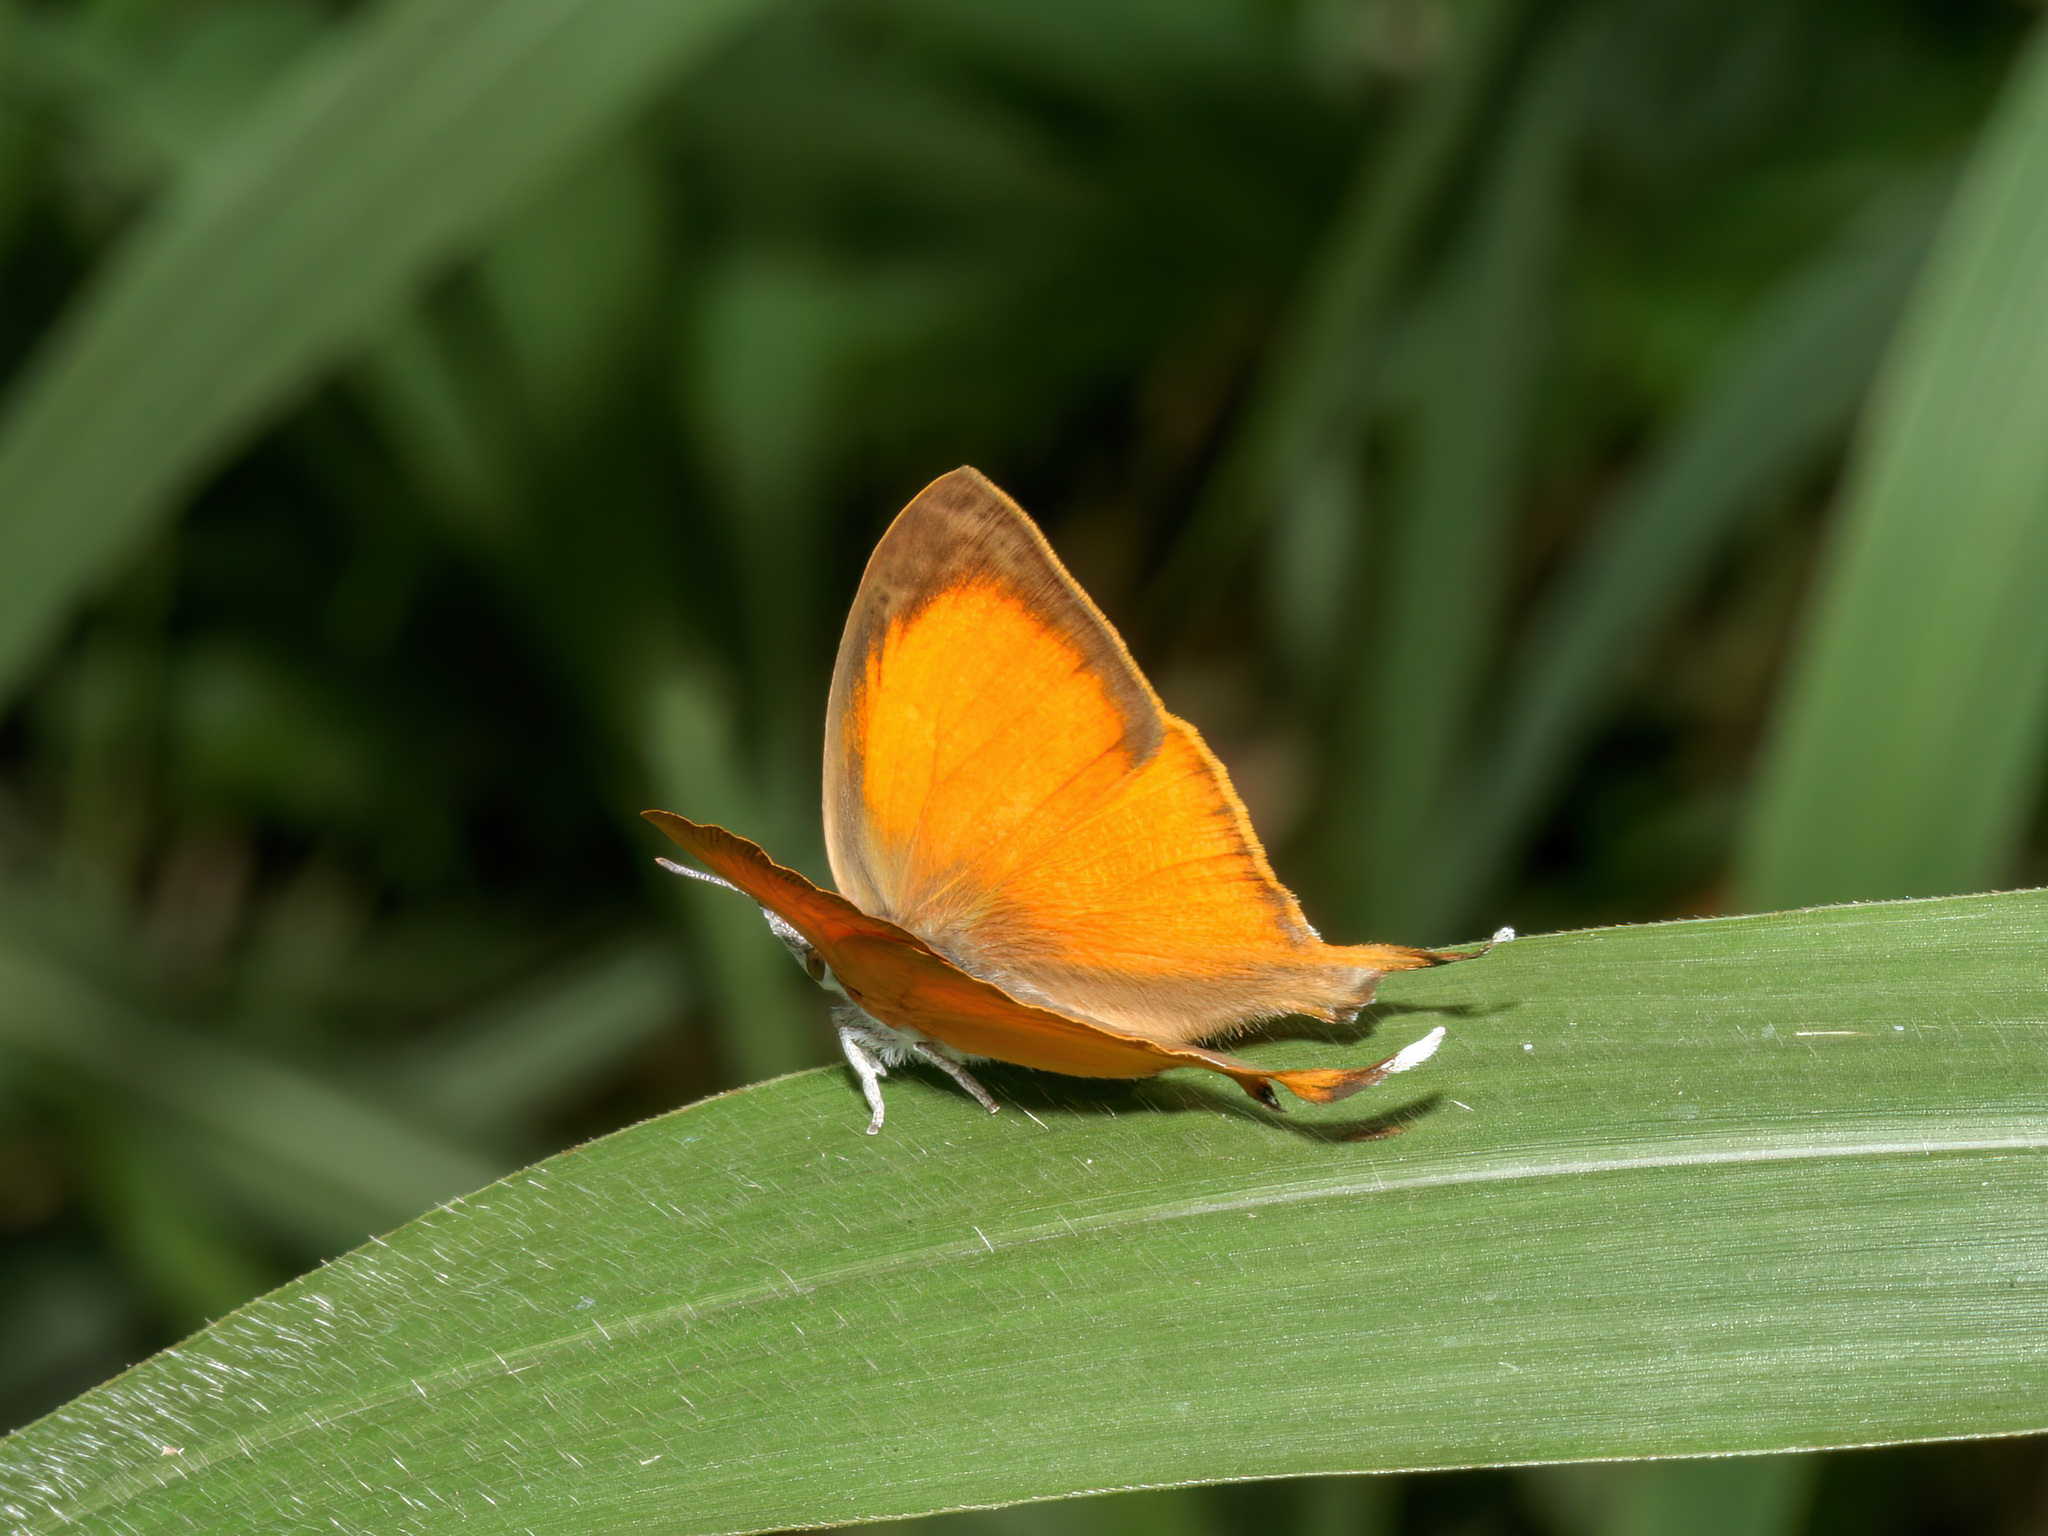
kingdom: Animalia
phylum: Arthropoda
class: Insecta
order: Lepidoptera
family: Lycaenidae
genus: Loxura
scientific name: Loxura atymnus
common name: Common yamfly
